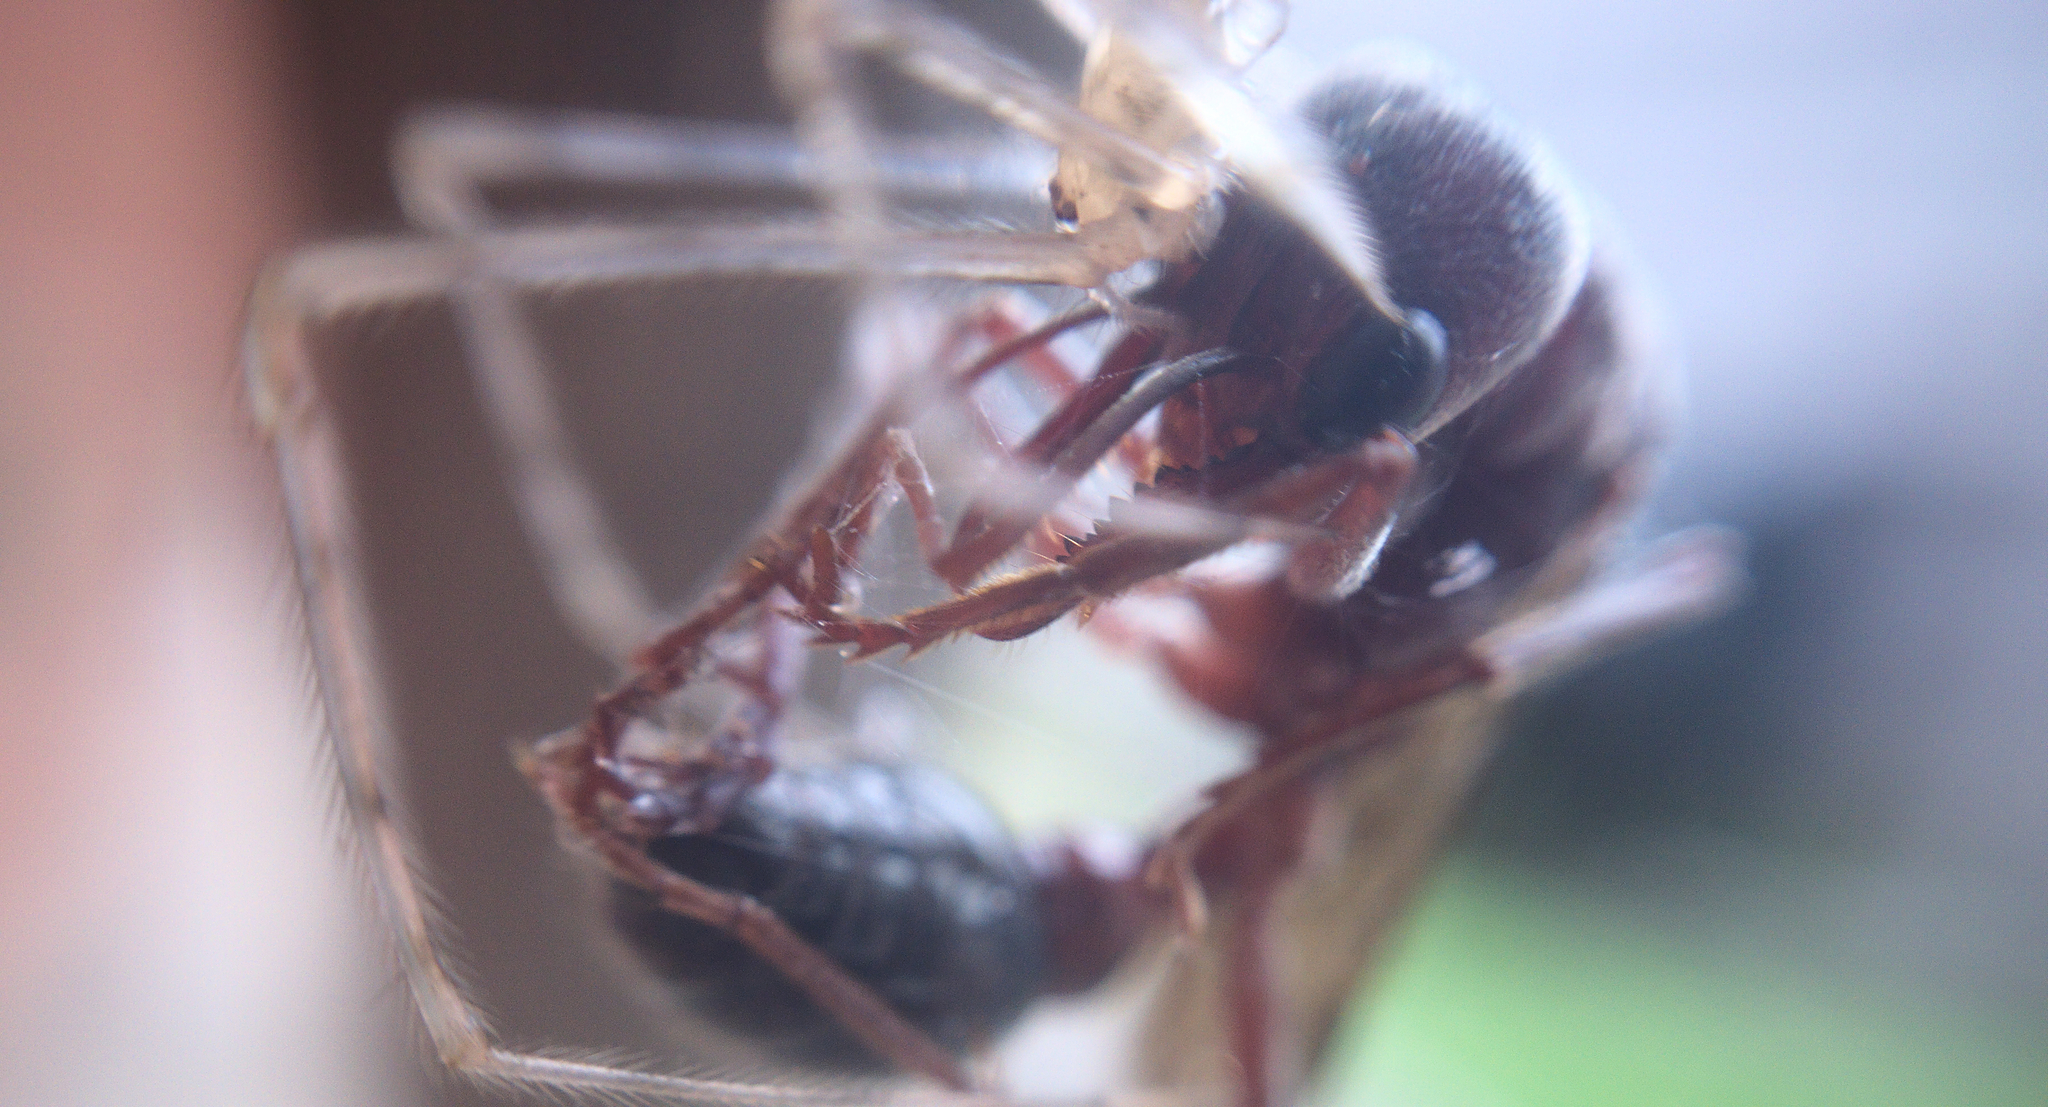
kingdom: Animalia
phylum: Arthropoda
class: Insecta
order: Hymenoptera
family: Formicidae
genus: Myrmecia
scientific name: Myrmecia forficata
